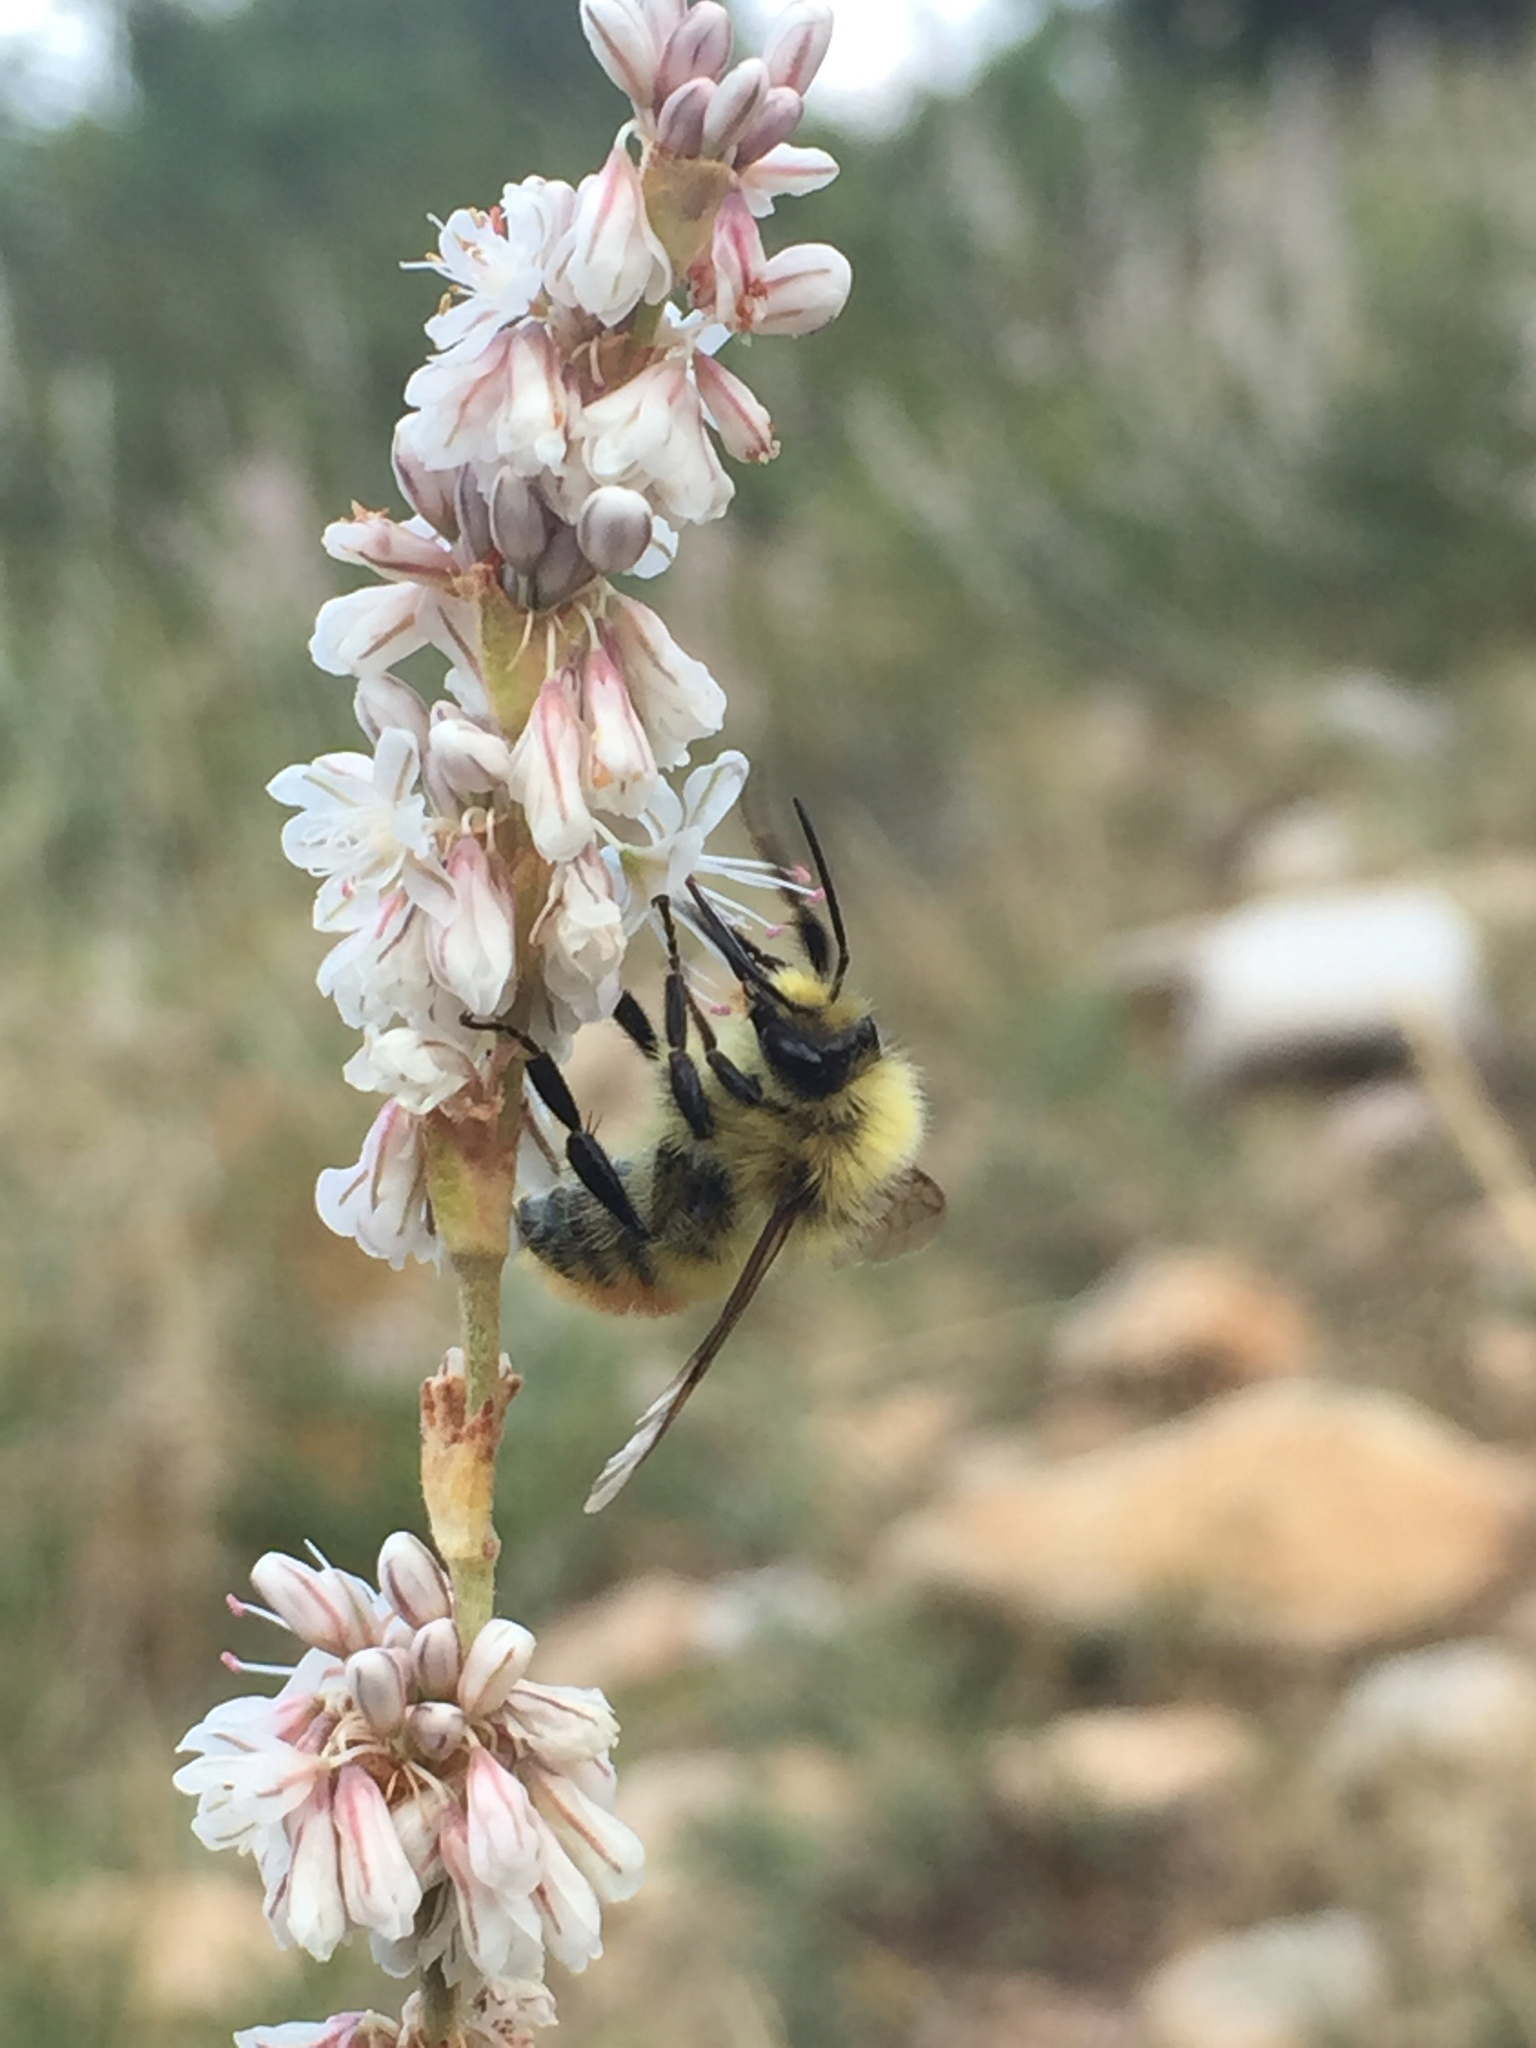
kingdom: Animalia
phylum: Arthropoda
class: Insecta
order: Hymenoptera
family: Apidae
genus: Bombus
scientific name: Bombus centralis
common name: Central bumble bee
